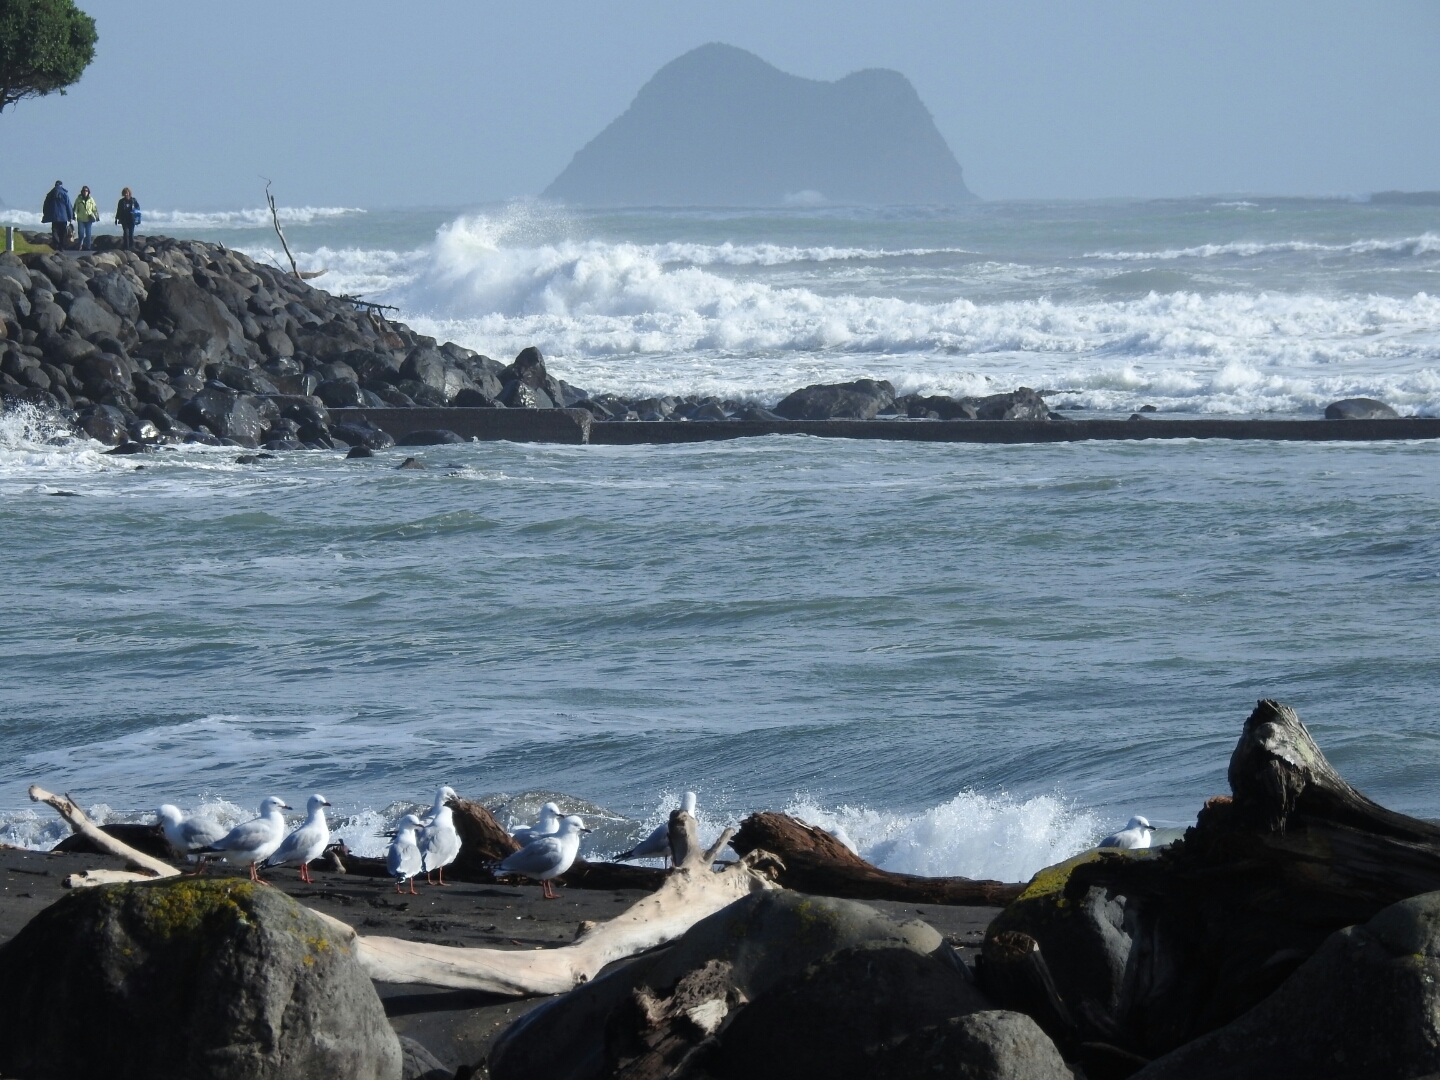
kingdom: Animalia
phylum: Chordata
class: Aves
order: Charadriiformes
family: Laridae
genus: Chroicocephalus
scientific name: Chroicocephalus novaehollandiae
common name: Silver gull
